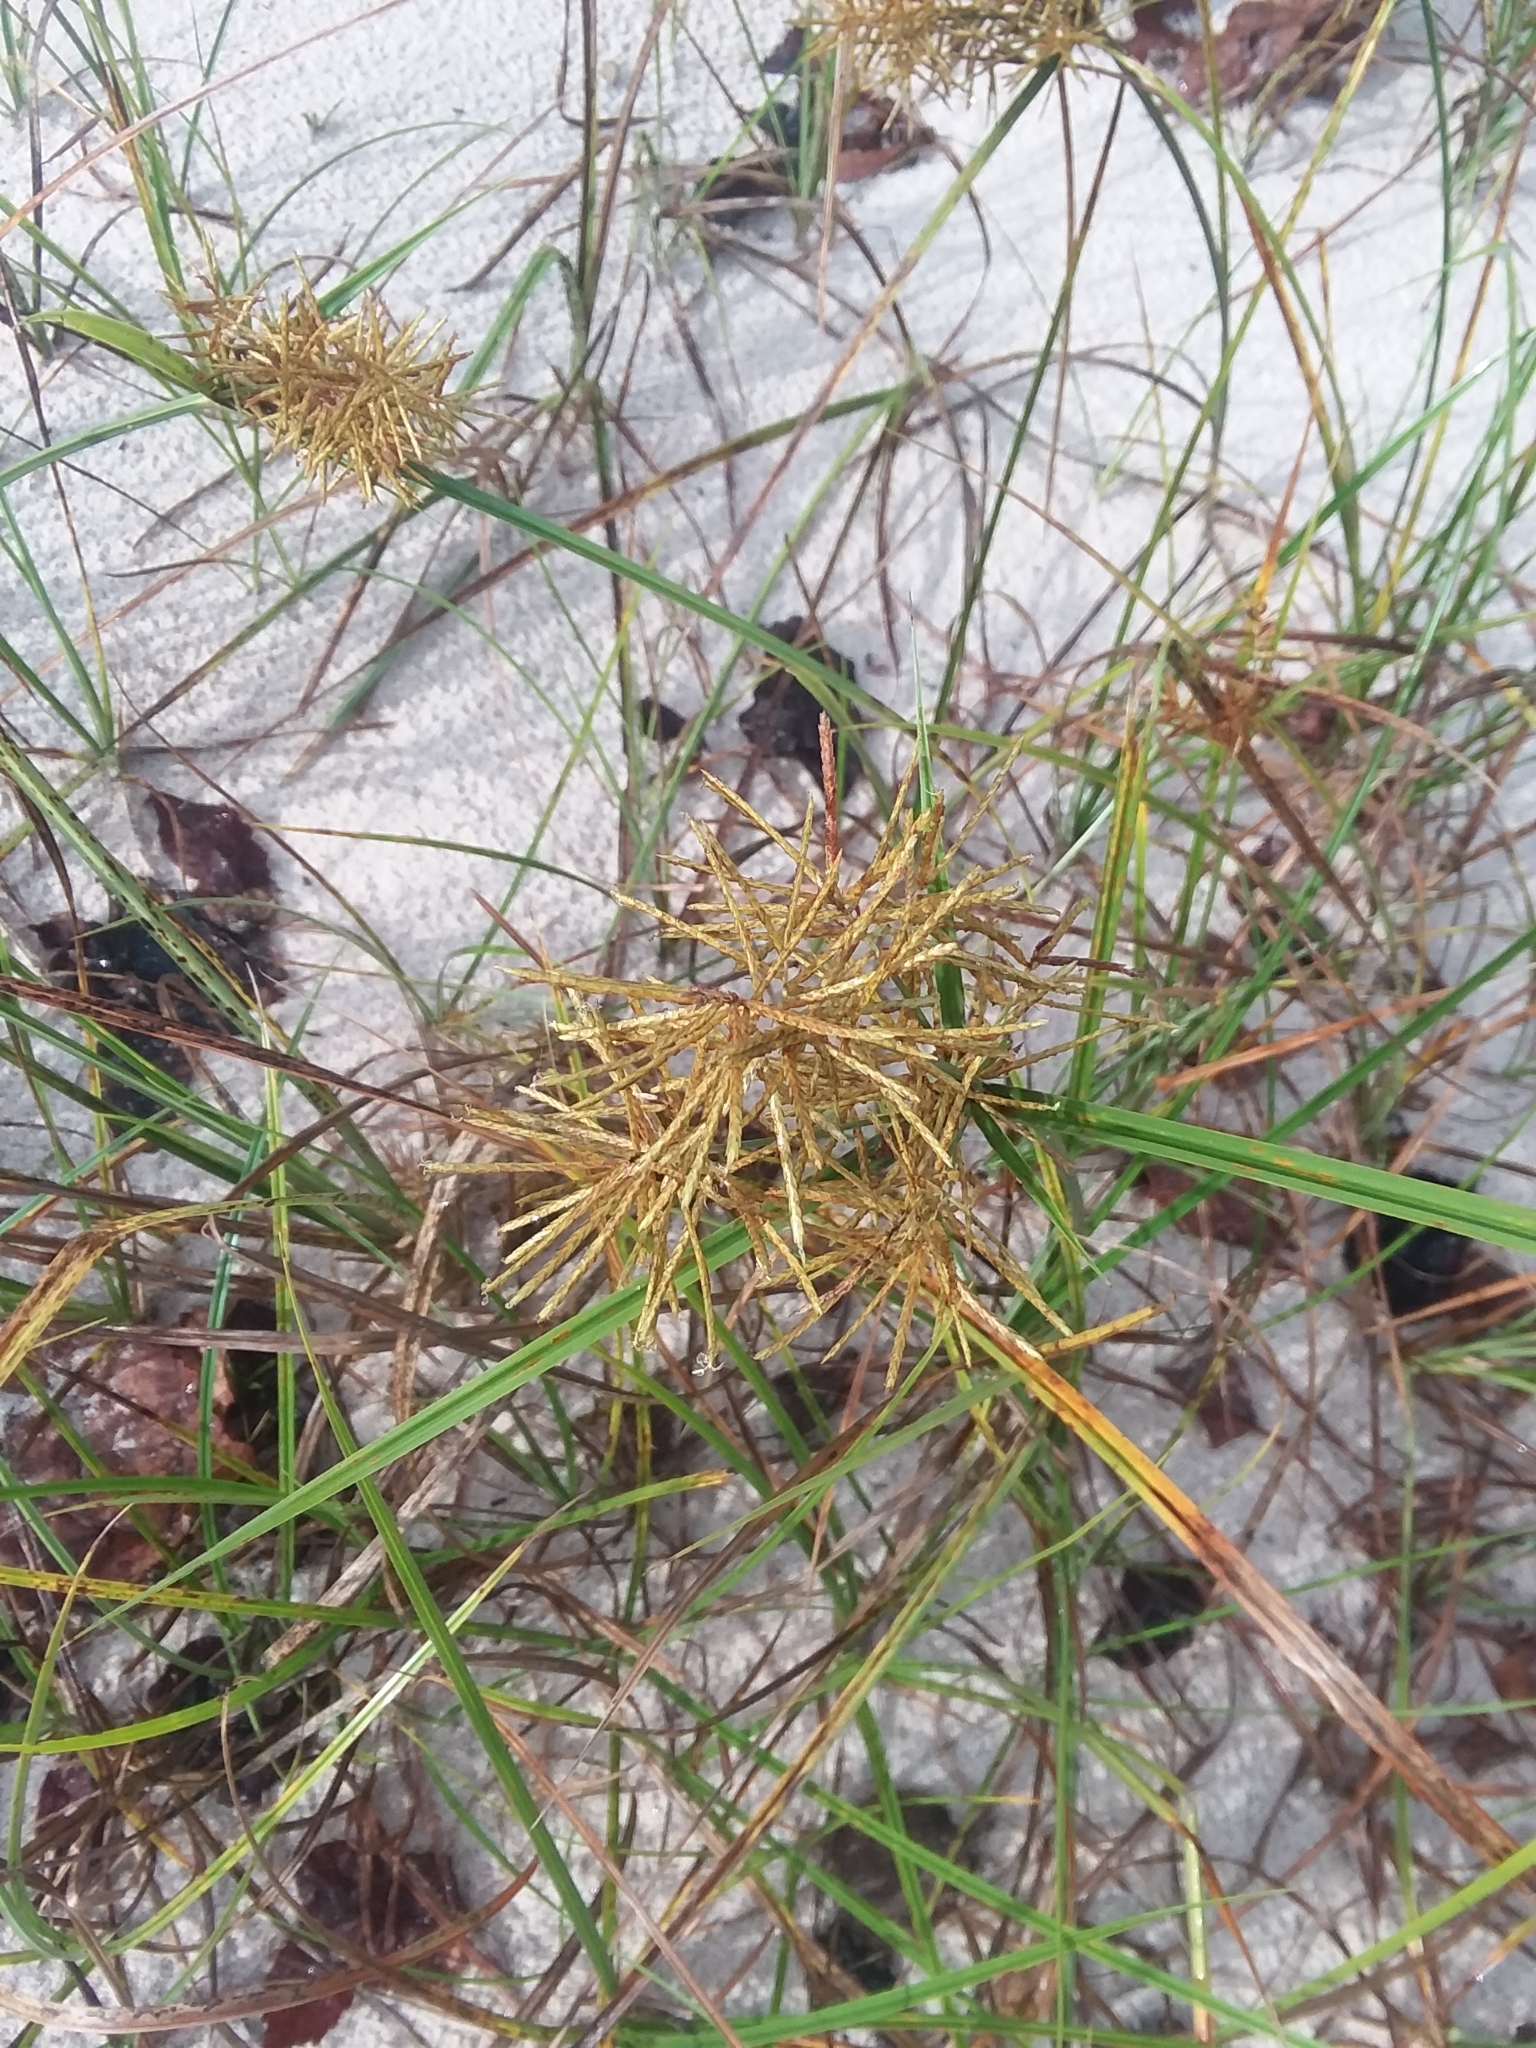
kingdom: Plantae
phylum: Tracheophyta
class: Liliopsida
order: Poales
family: Cyperaceae
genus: Cyperus
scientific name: Cyperus esculentus
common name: Yellow nutsedge
